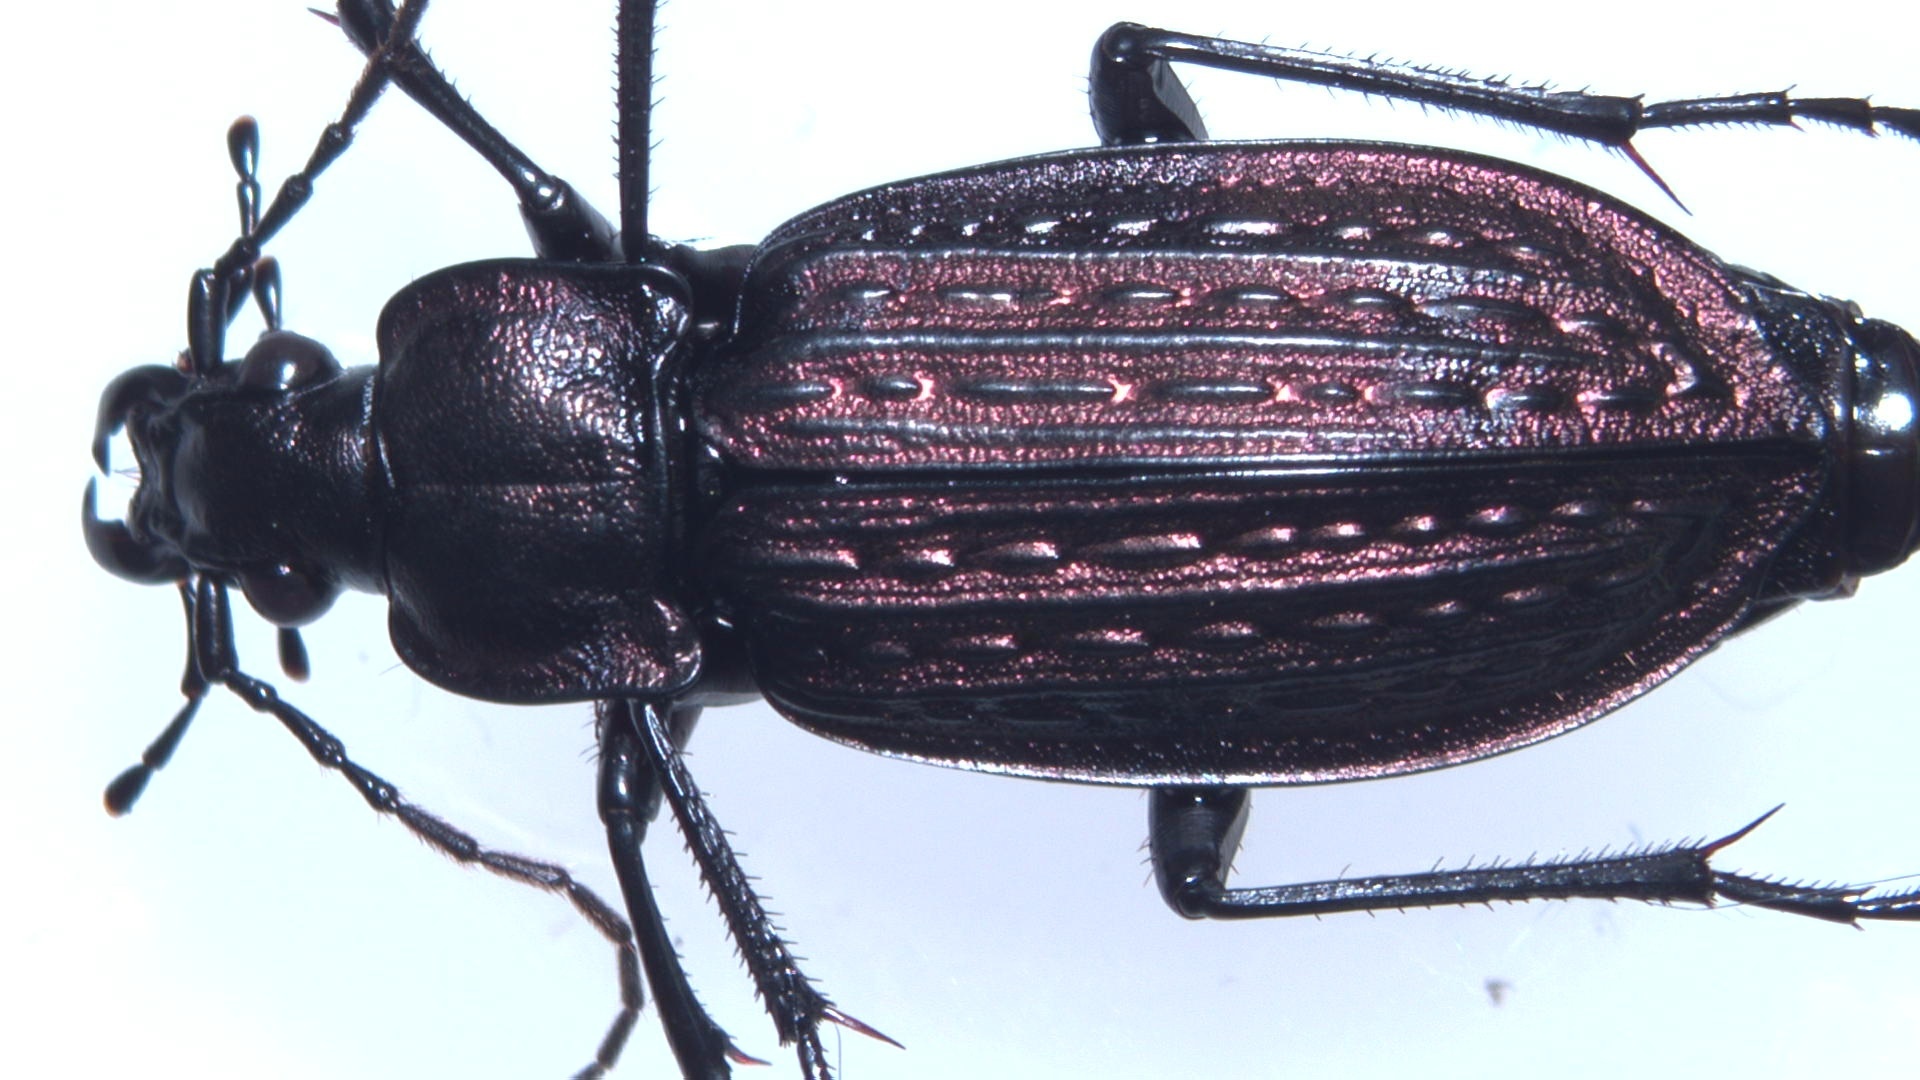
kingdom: Animalia
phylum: Arthropoda
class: Insecta
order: Coleoptera
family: Carabidae
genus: Carabus
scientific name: Carabus granulatus
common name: Granulate ground beetle
